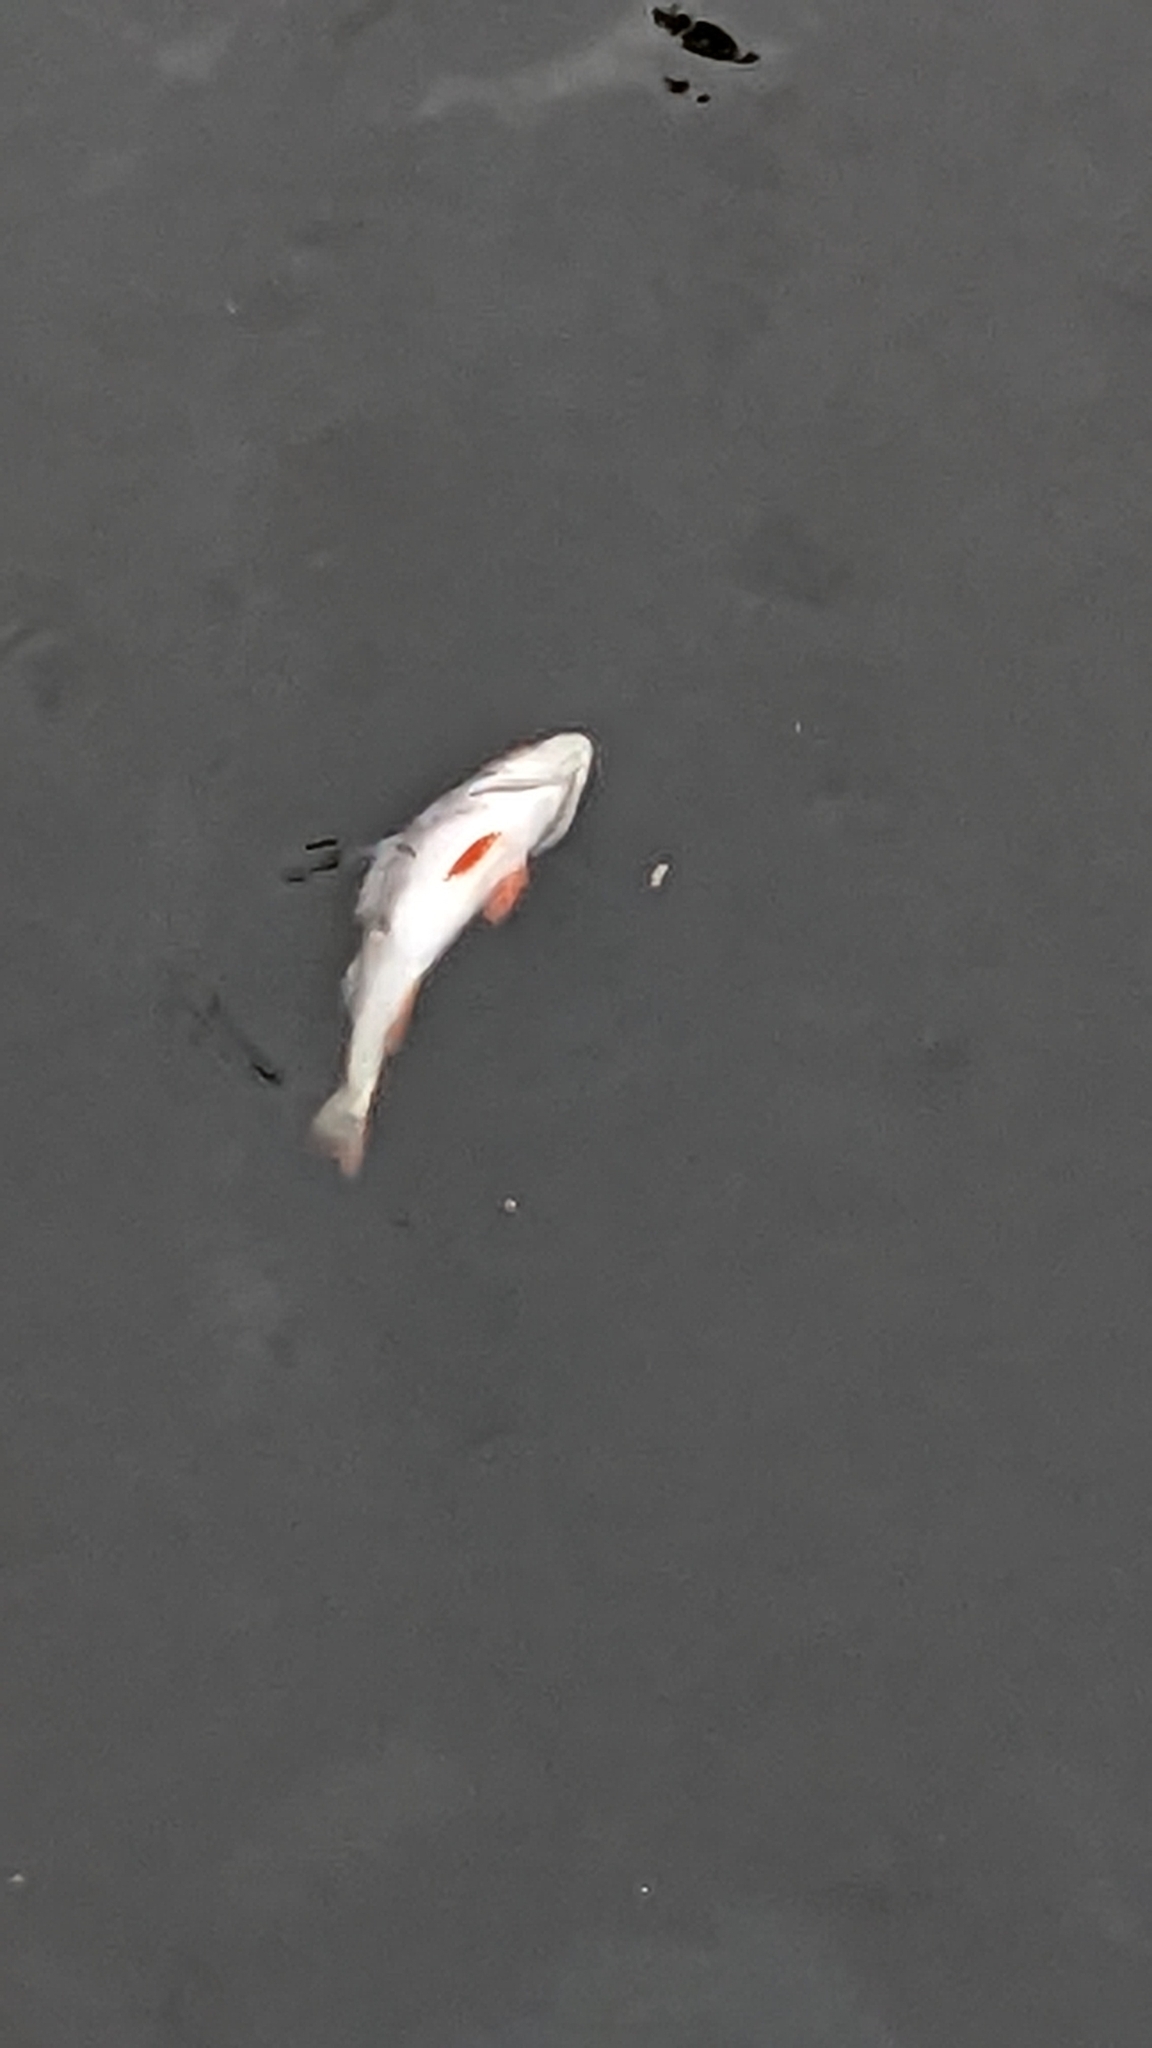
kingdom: Animalia
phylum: Chordata
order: Perciformes
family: Percidae
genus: Perca
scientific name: Perca fluviatilis
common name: Perch
